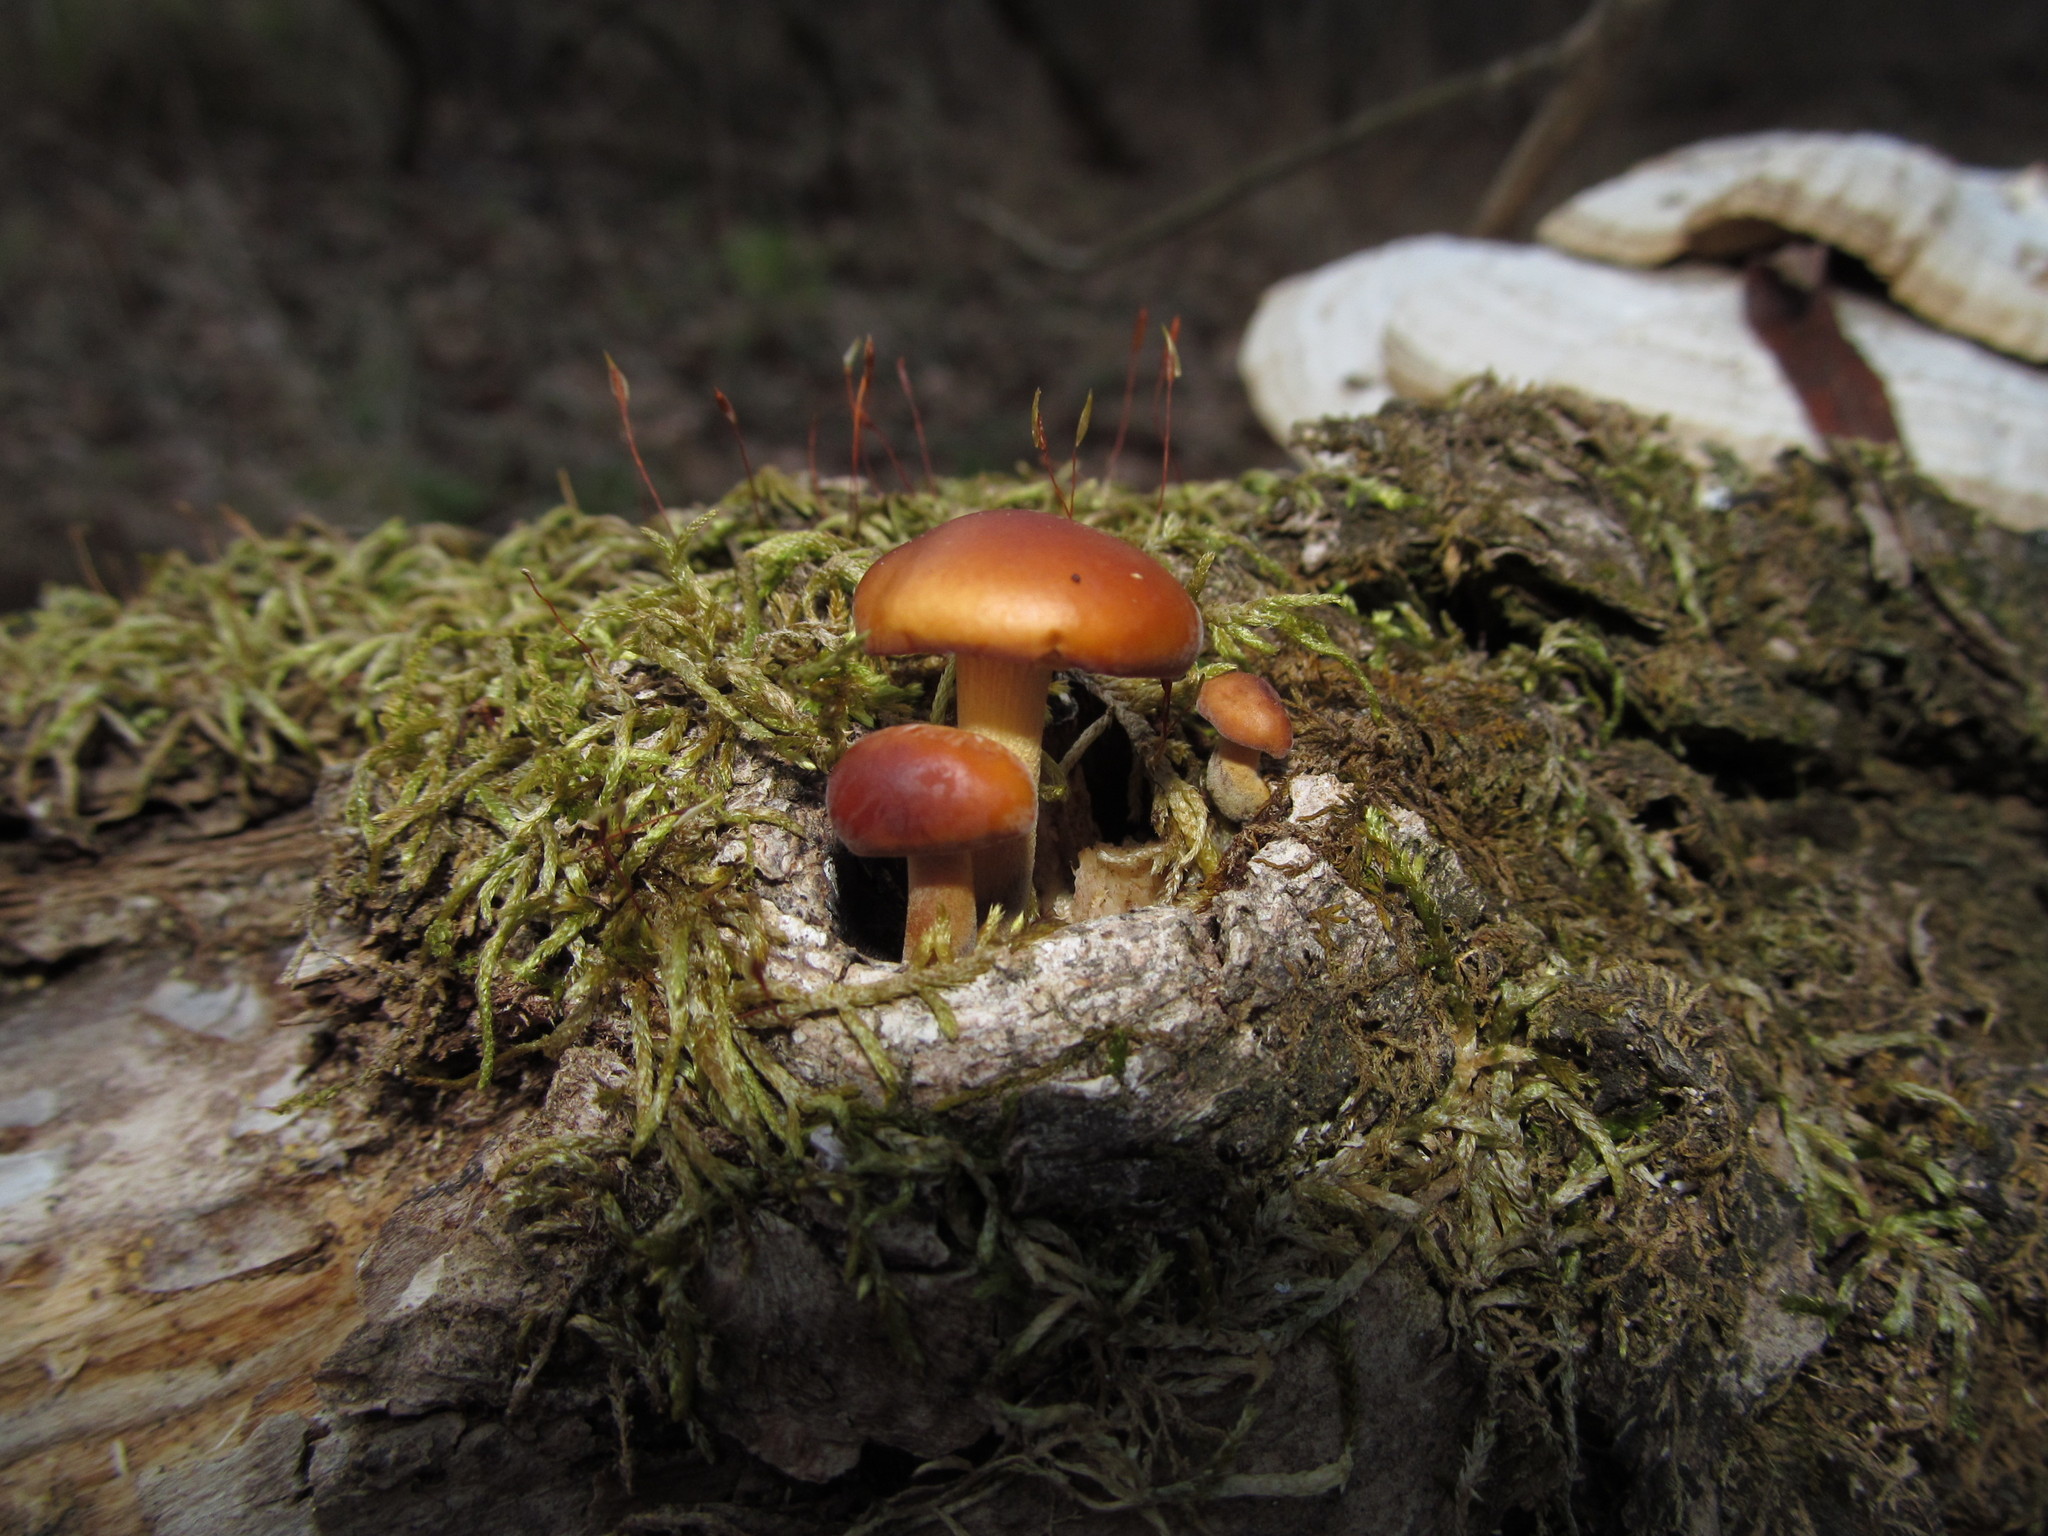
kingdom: Fungi
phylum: Basidiomycota
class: Agaricomycetes
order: Agaricales
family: Physalacriaceae
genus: Flammulina
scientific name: Flammulina velutipes
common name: Velvet shank
